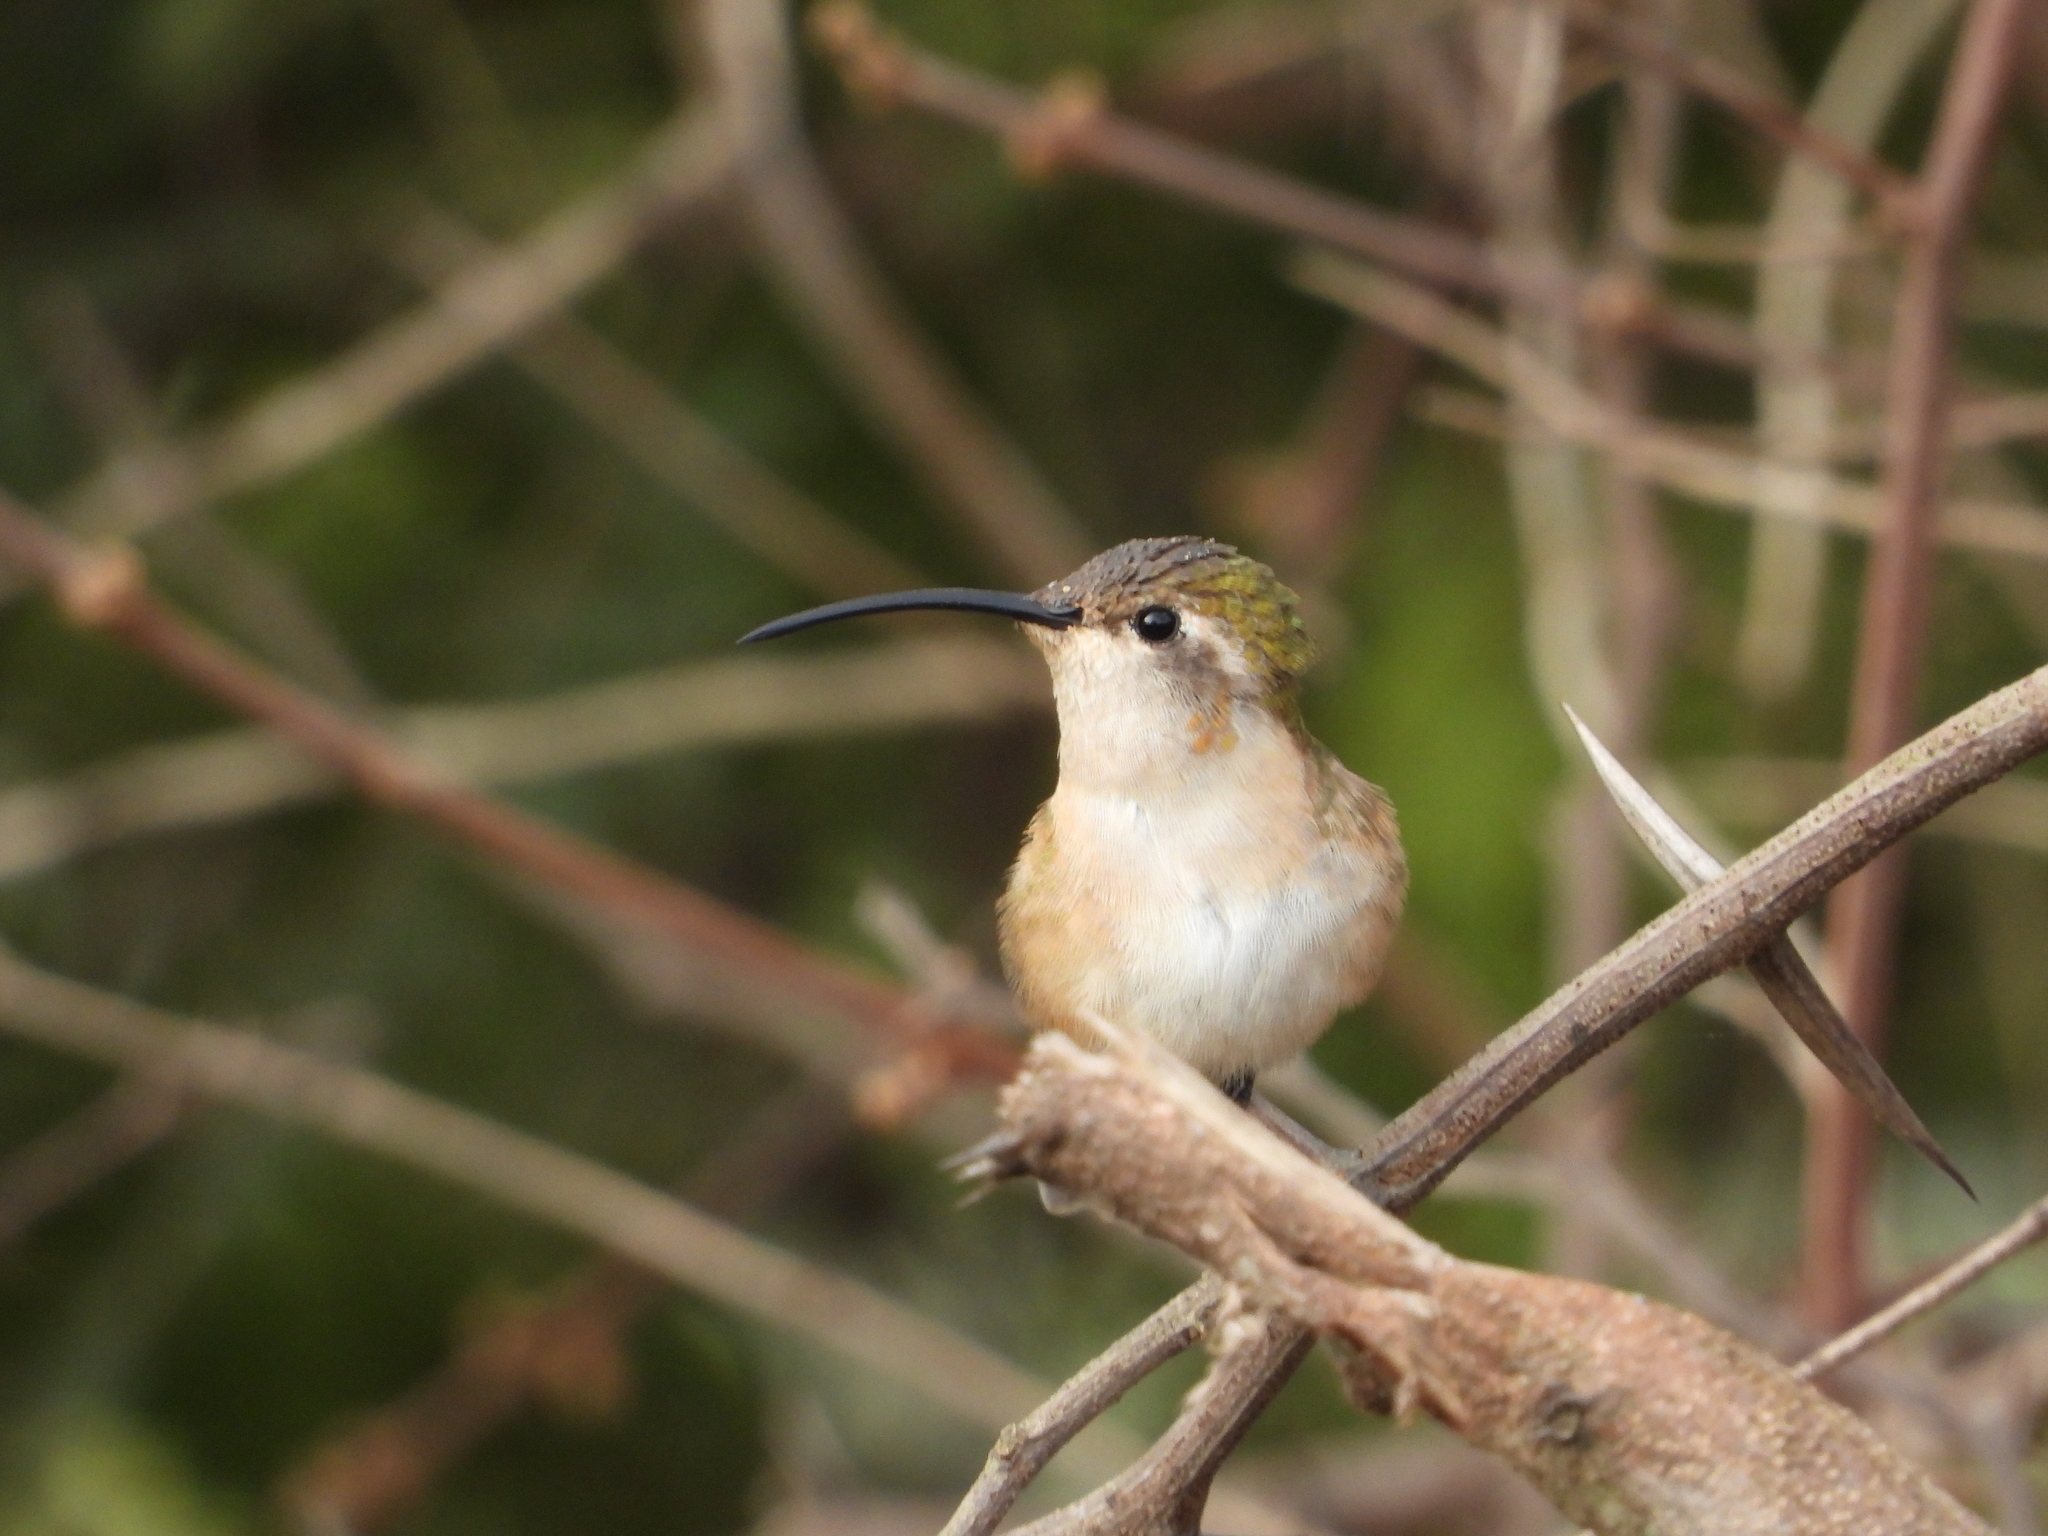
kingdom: Animalia
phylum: Chordata
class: Aves
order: Apodiformes
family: Trochilidae
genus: Doricha
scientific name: Doricha eliza
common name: Mexican sheartail
